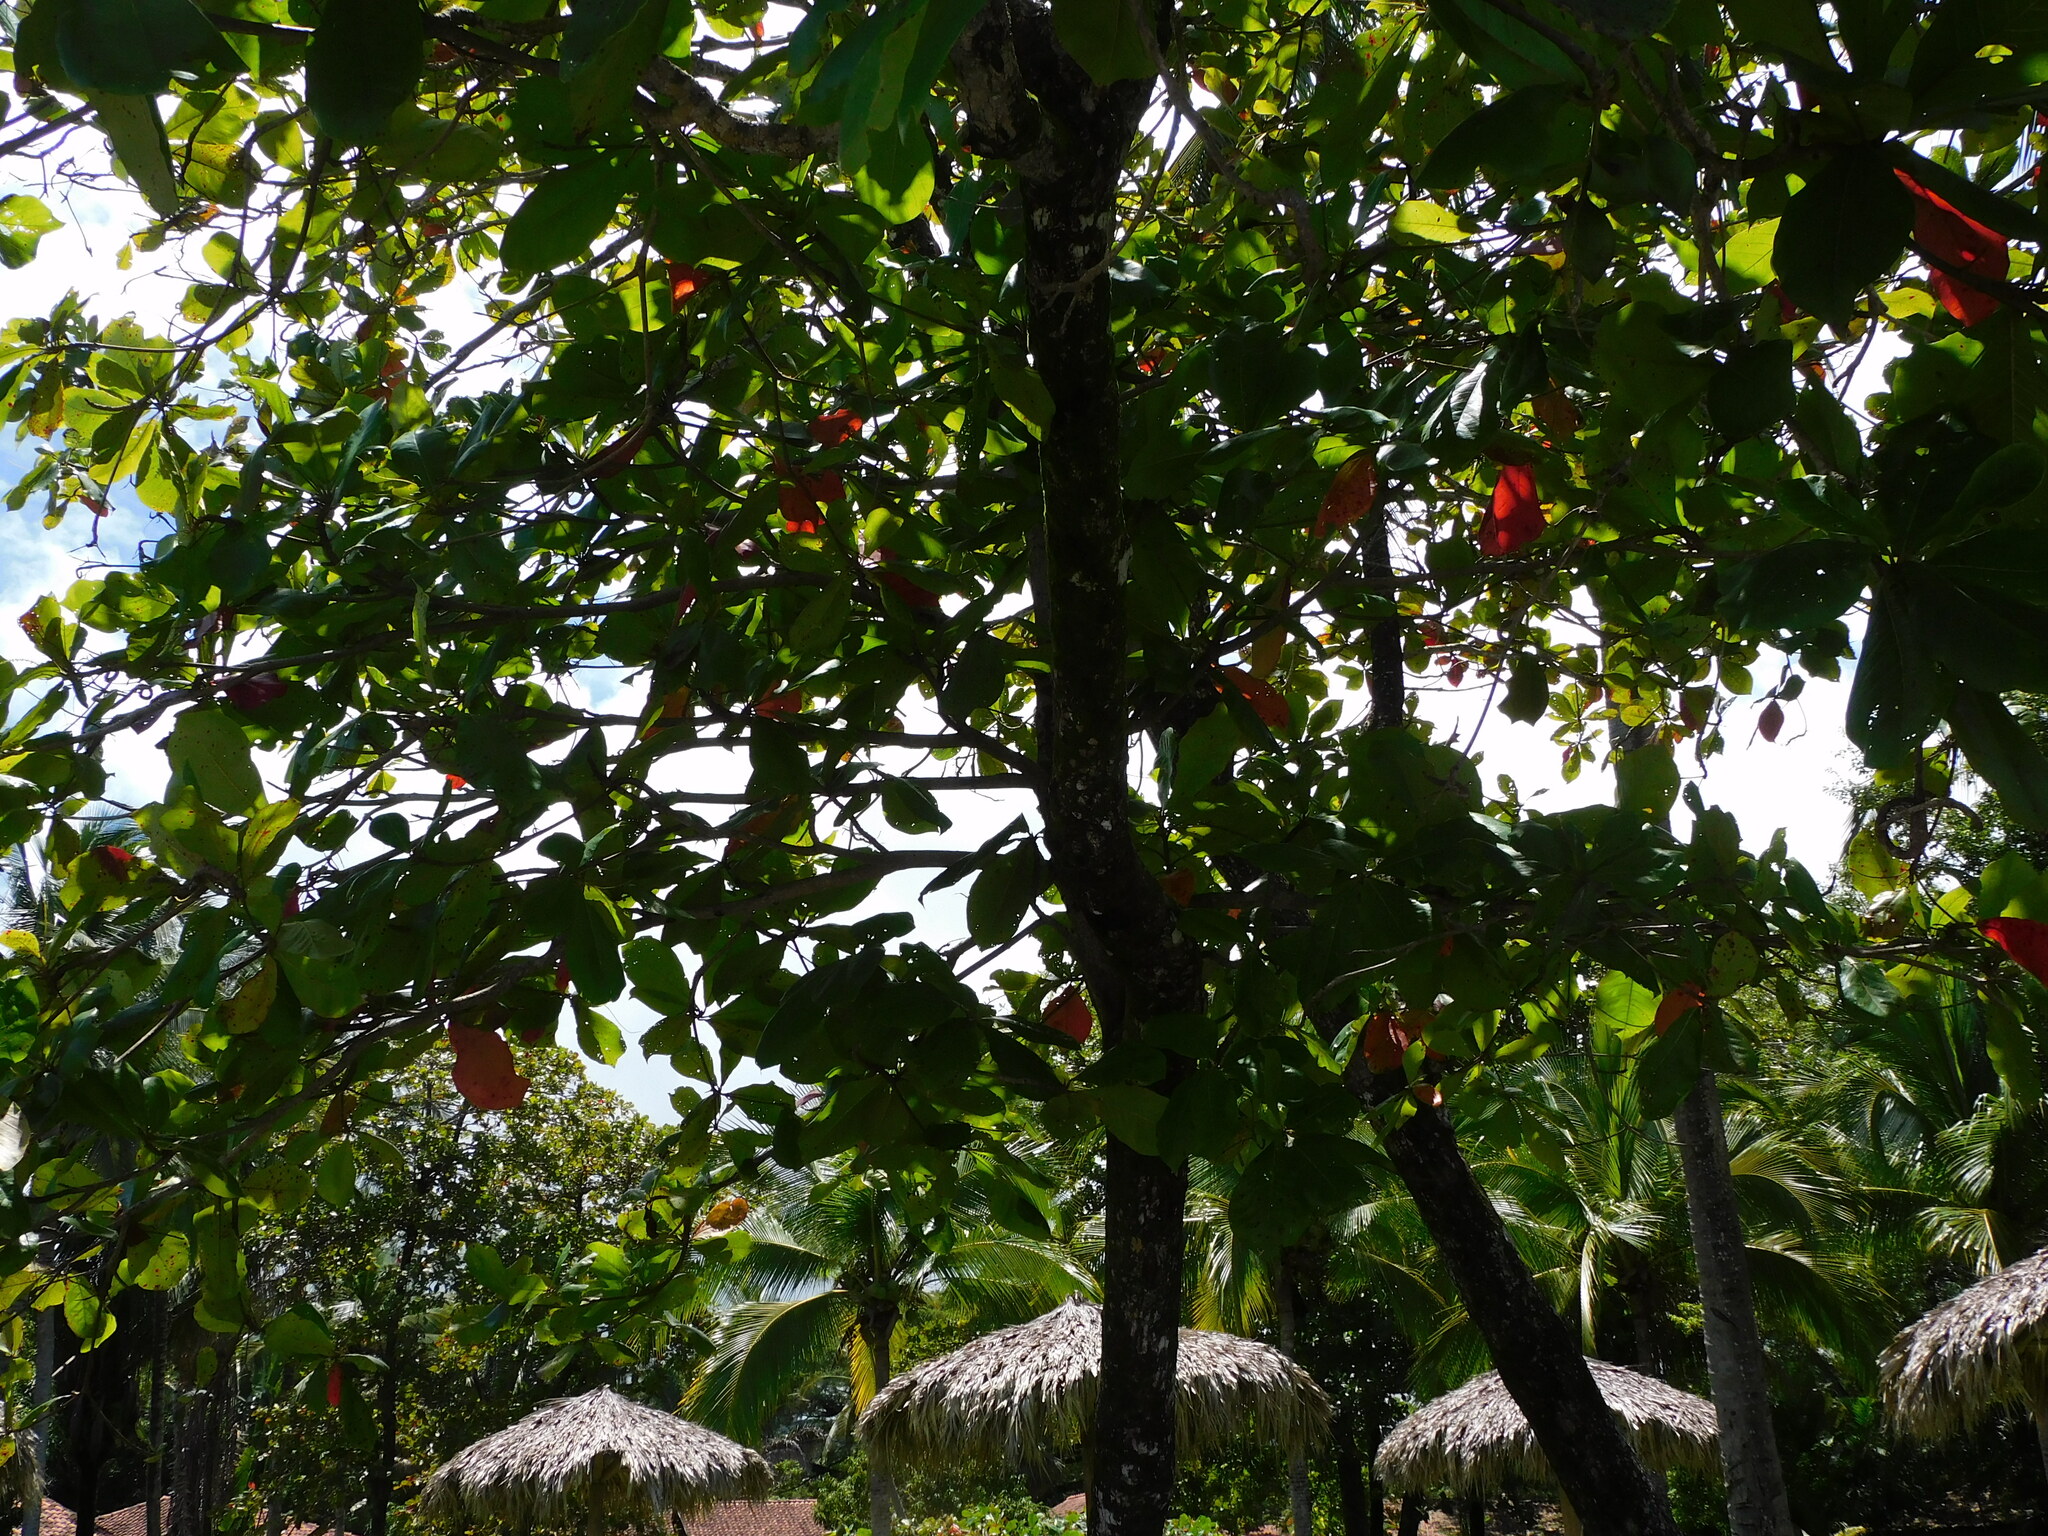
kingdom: Plantae
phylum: Tracheophyta
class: Magnoliopsida
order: Myrtales
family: Combretaceae
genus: Terminalia
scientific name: Terminalia catappa
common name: Tropical almond
